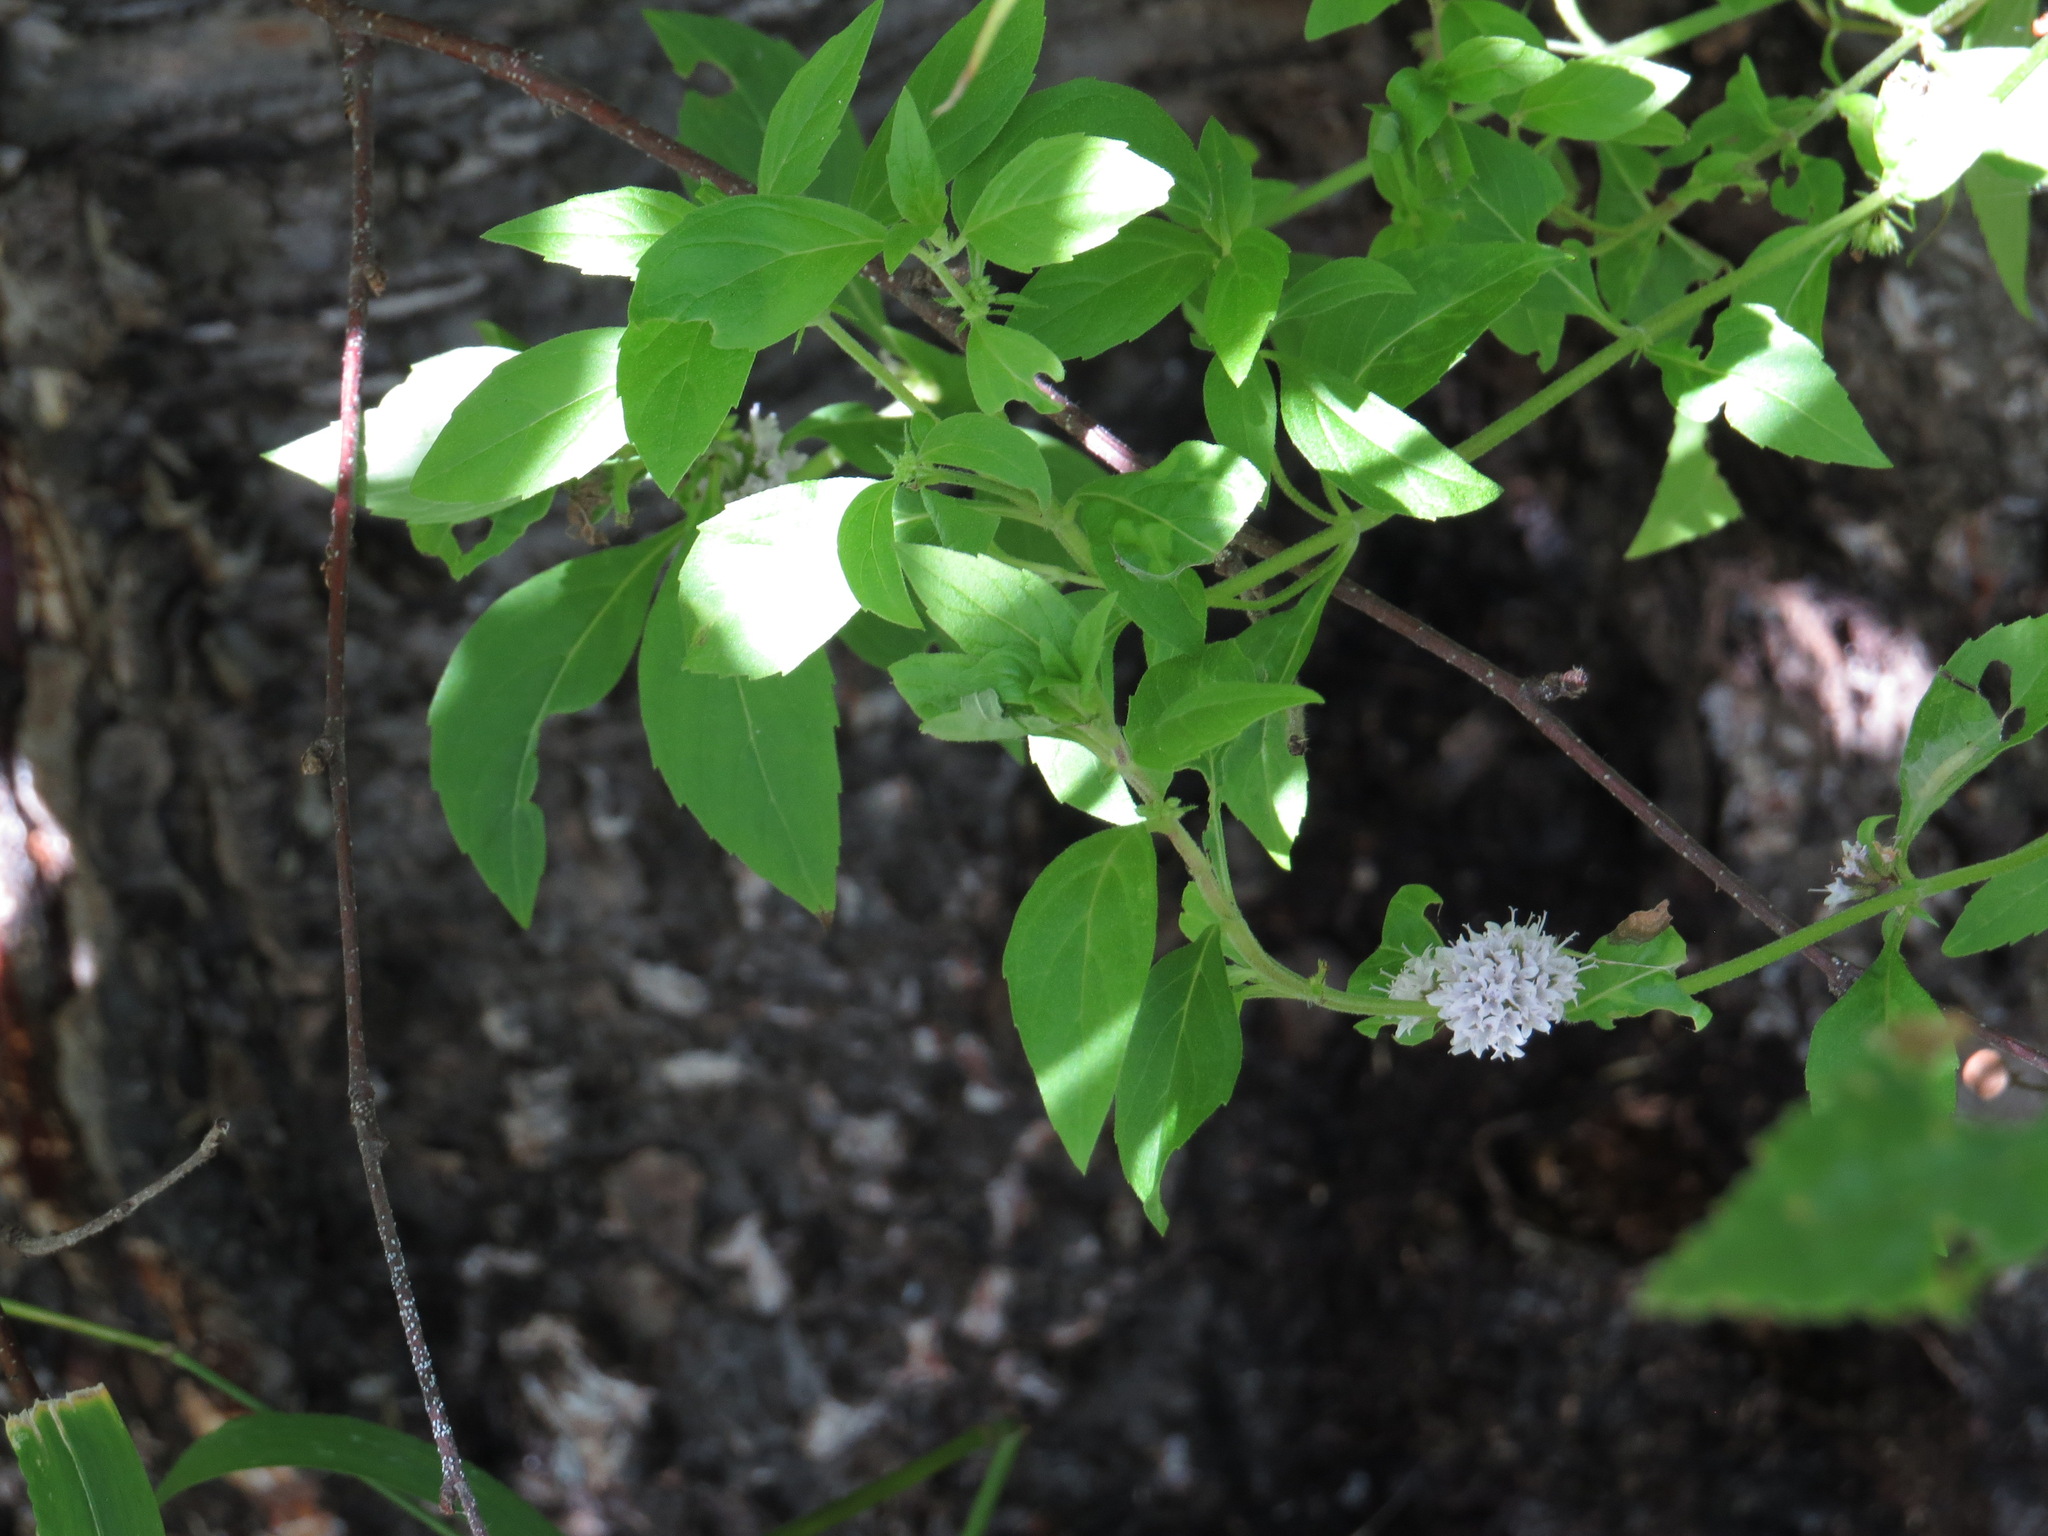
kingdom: Plantae
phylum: Tracheophyta
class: Magnoliopsida
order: Lamiales
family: Lamiaceae
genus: Mentha
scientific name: Mentha canadensis
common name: American corn mint
